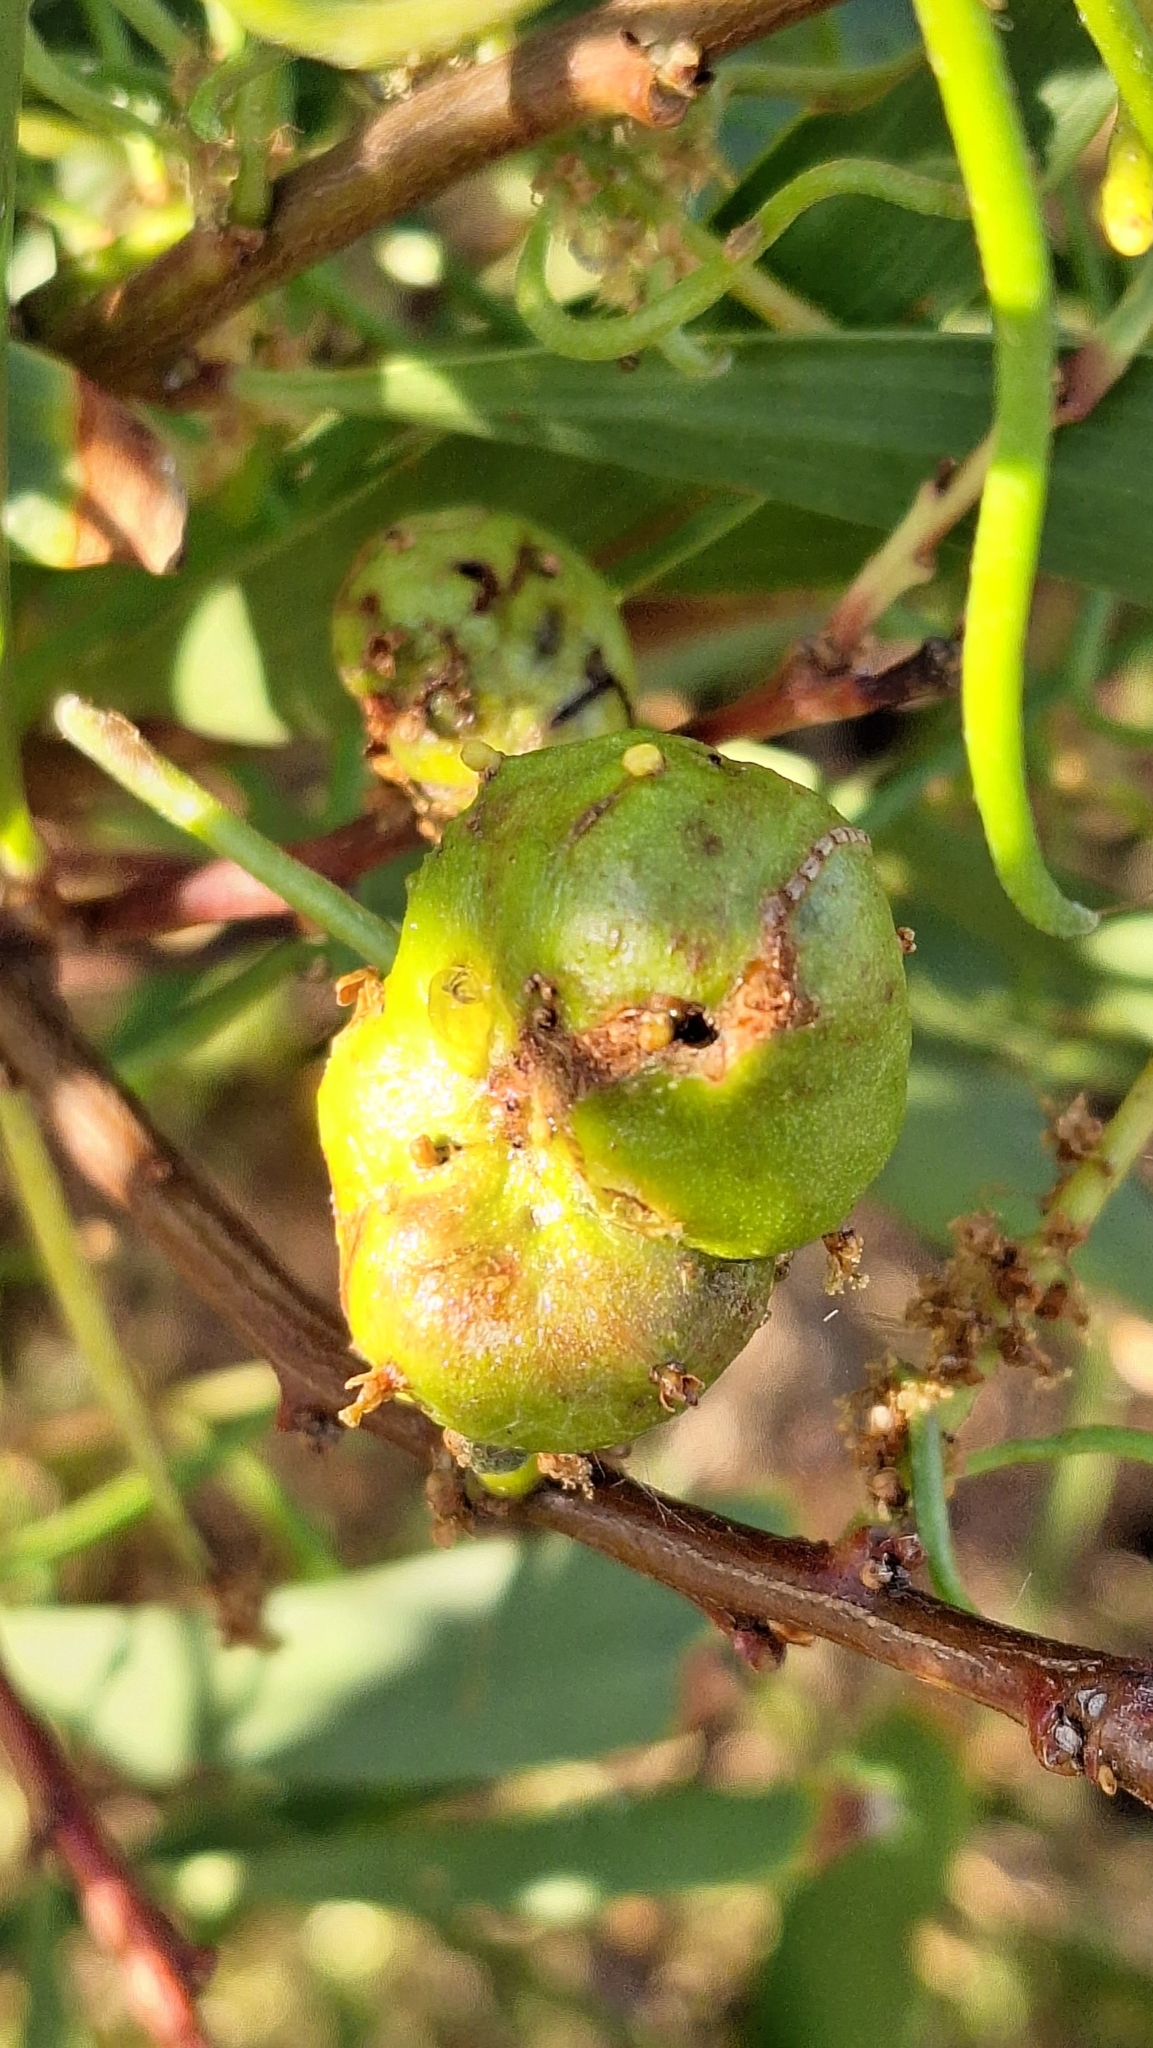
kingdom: Animalia
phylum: Arthropoda
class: Insecta
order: Hymenoptera
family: Pteromalidae
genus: Trichilogaster
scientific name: Trichilogaster acaciaelongifoliae
